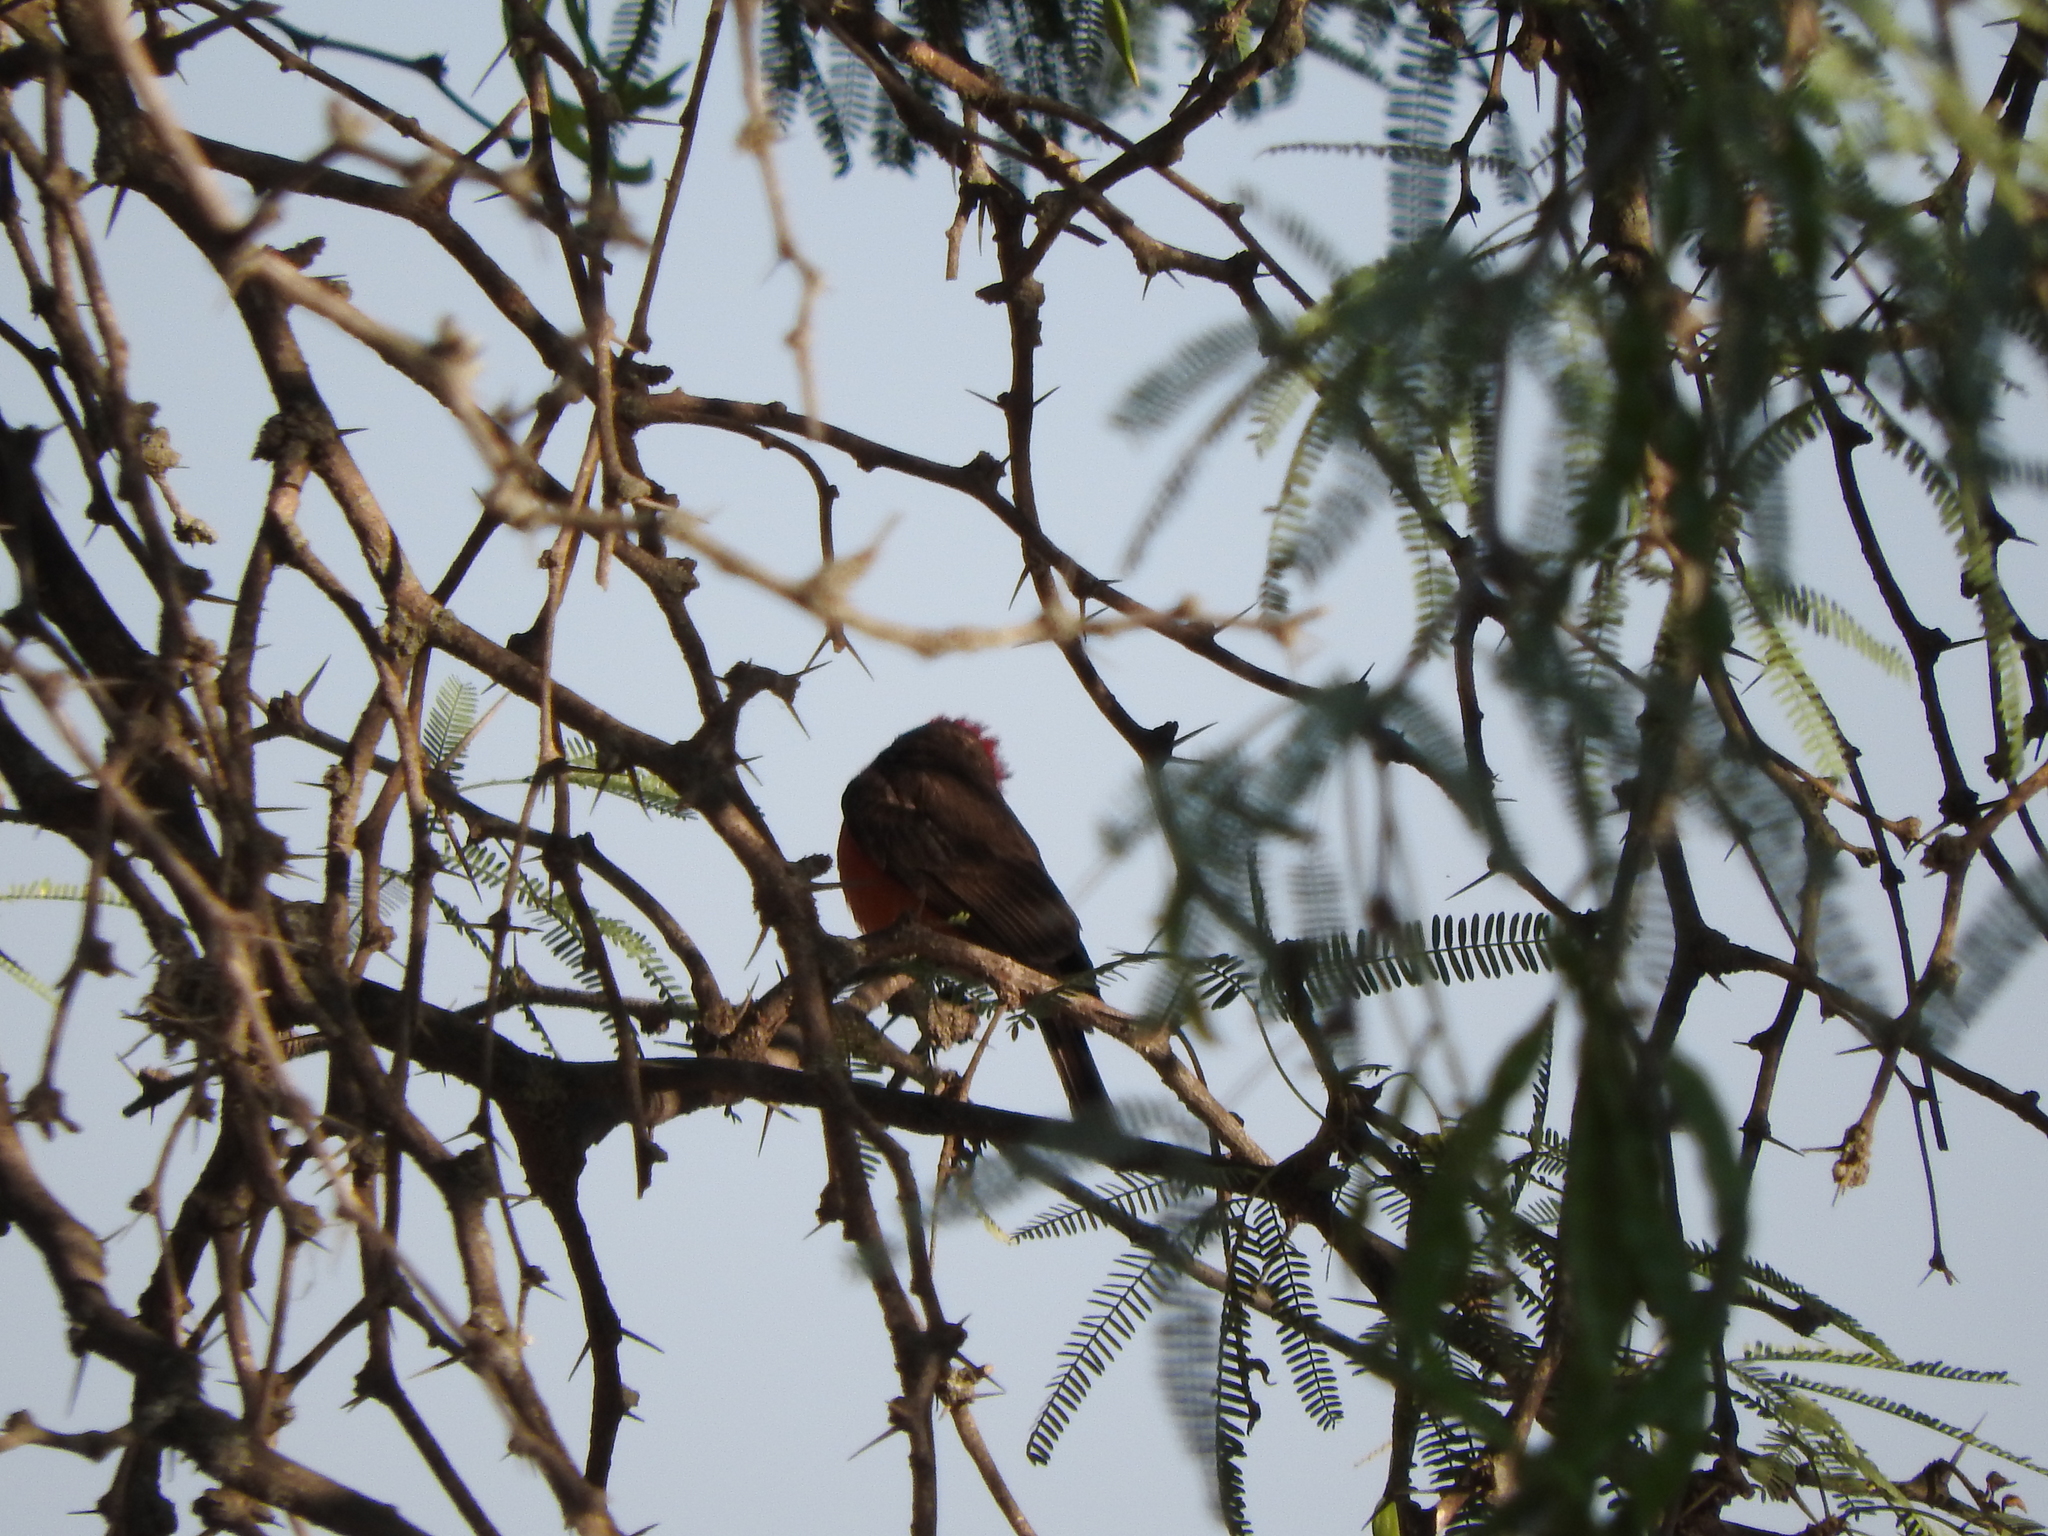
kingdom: Animalia
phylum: Chordata
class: Aves
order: Passeriformes
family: Tyrannidae
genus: Pyrocephalus
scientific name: Pyrocephalus rubinus
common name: Vermilion flycatcher
